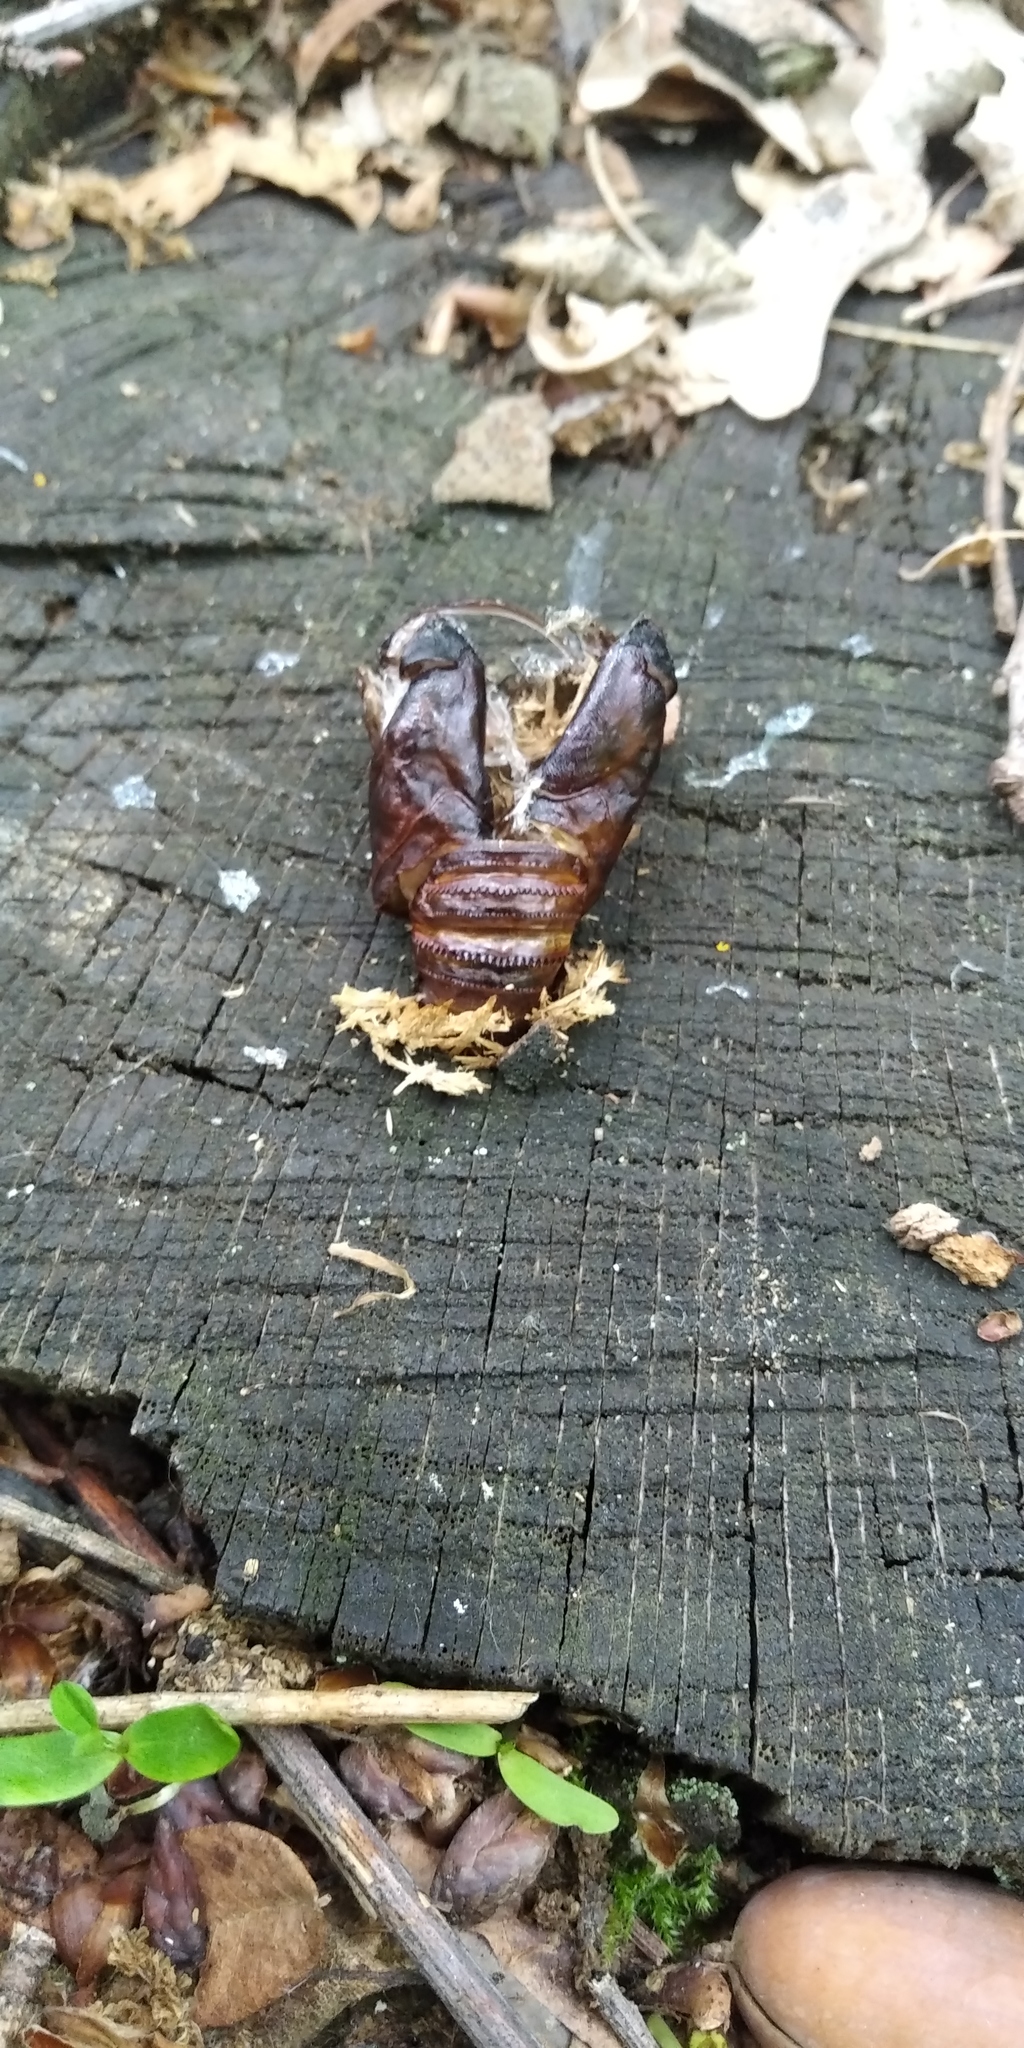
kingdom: Animalia
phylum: Arthropoda
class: Insecta
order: Lepidoptera
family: Cossidae
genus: Cossus
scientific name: Cossus cossus
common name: Goat moth
